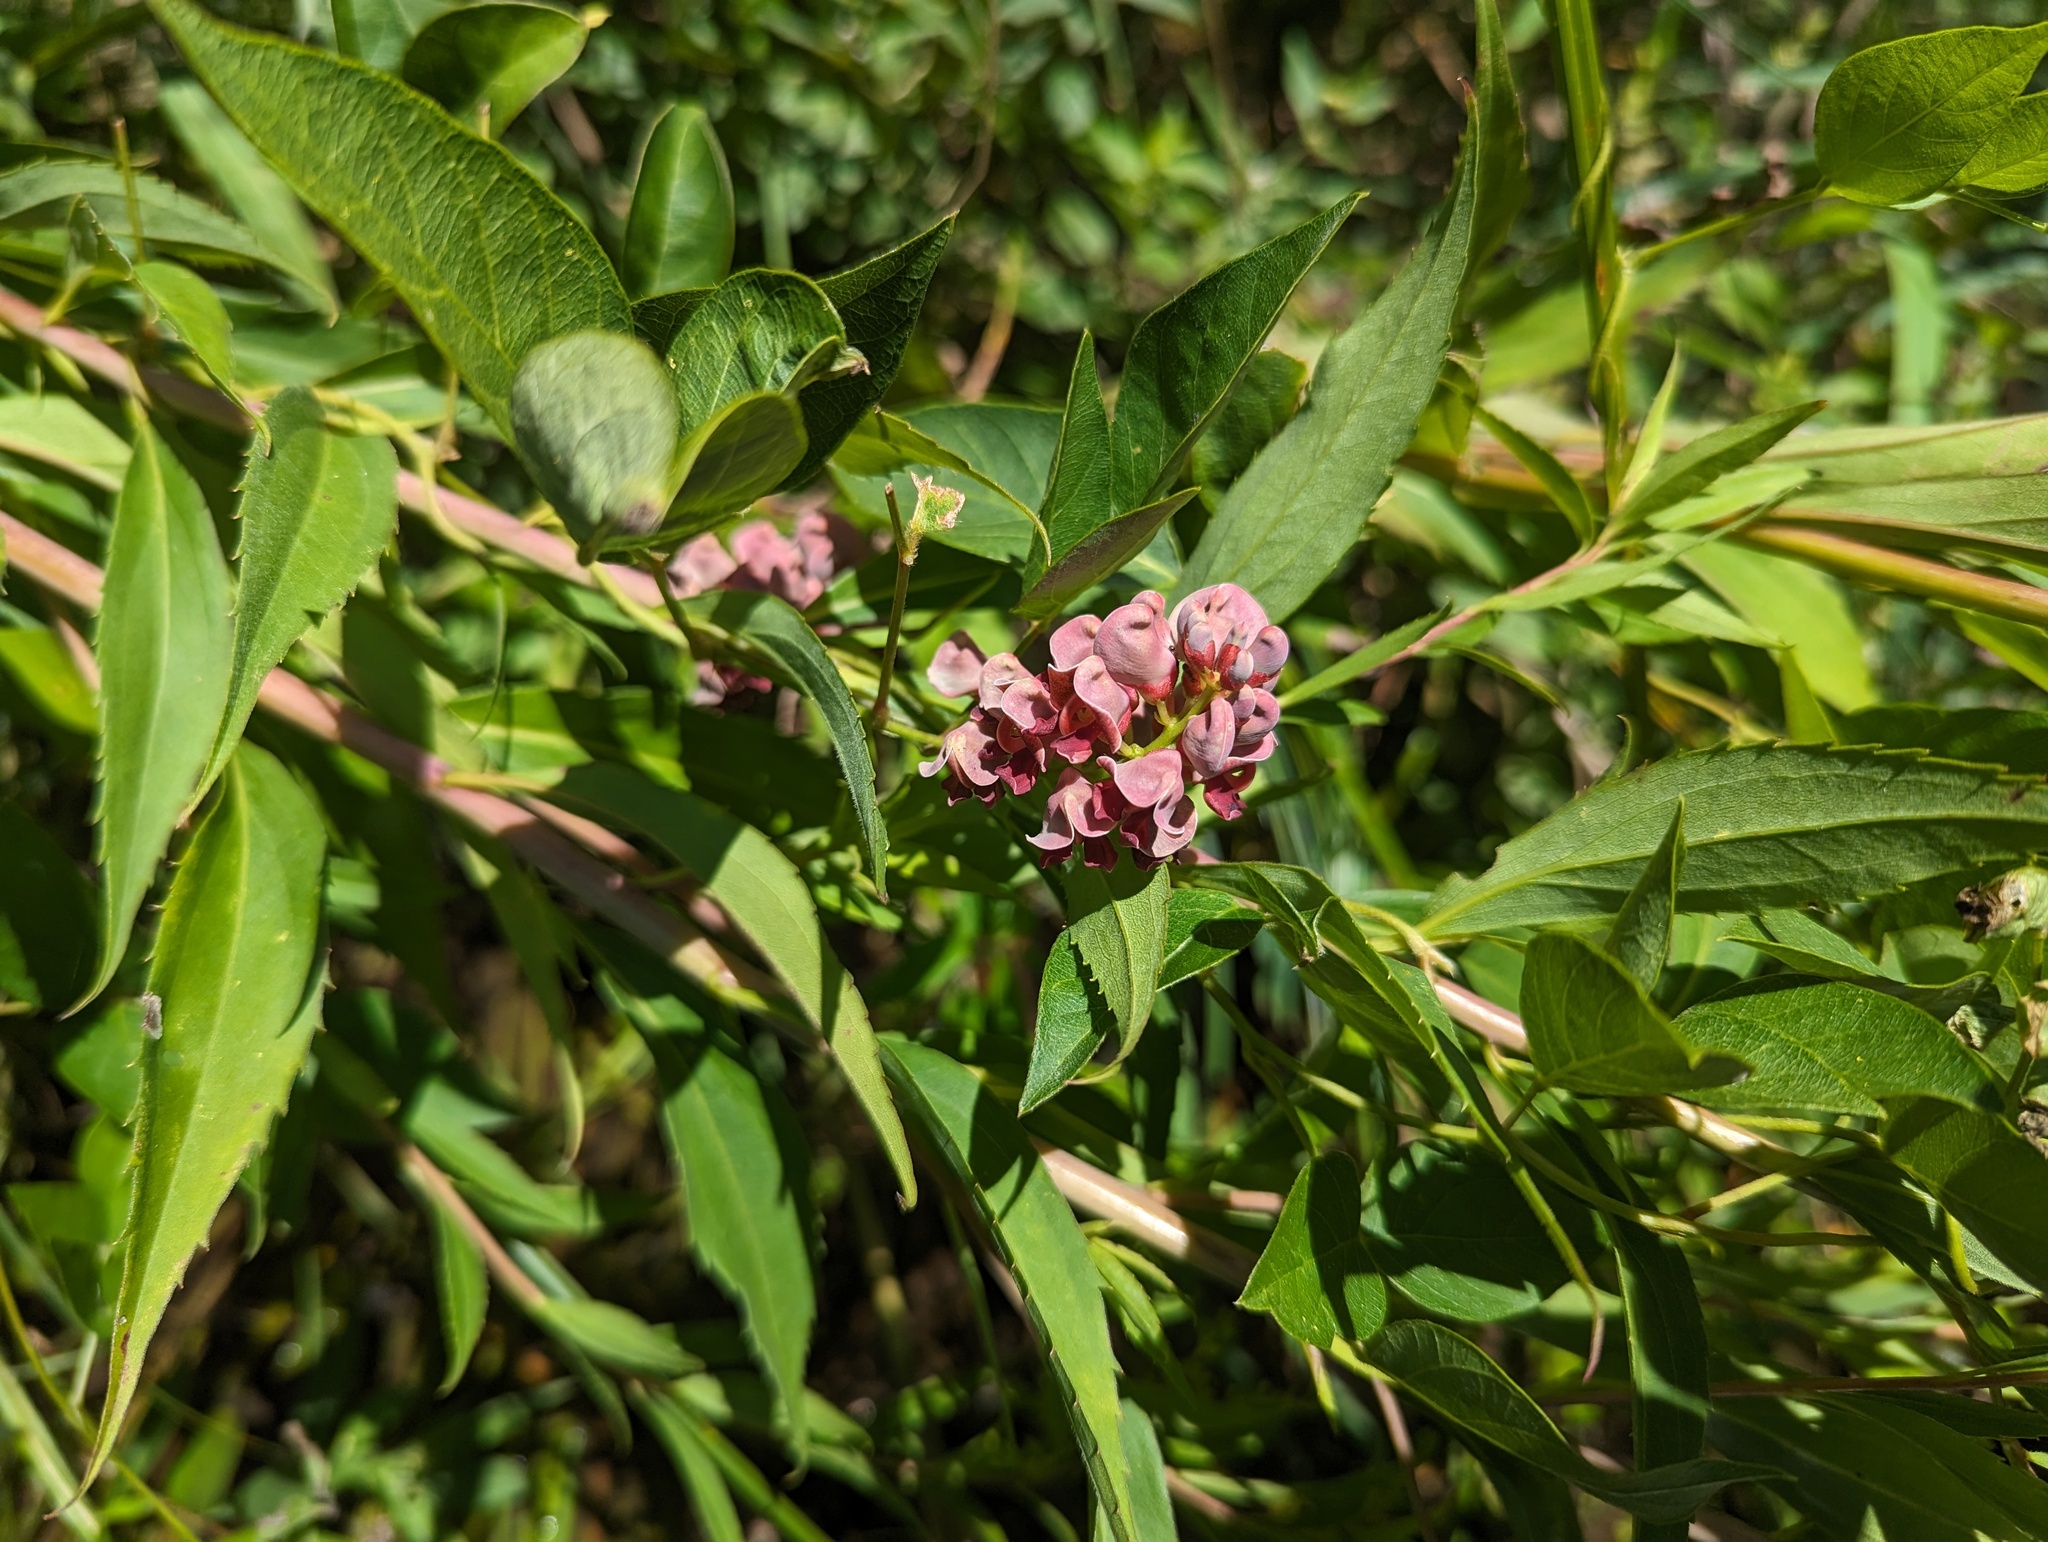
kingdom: Plantae
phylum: Tracheophyta
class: Magnoliopsida
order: Fabales
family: Fabaceae
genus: Apios
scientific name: Apios americana
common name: American potato-bean
